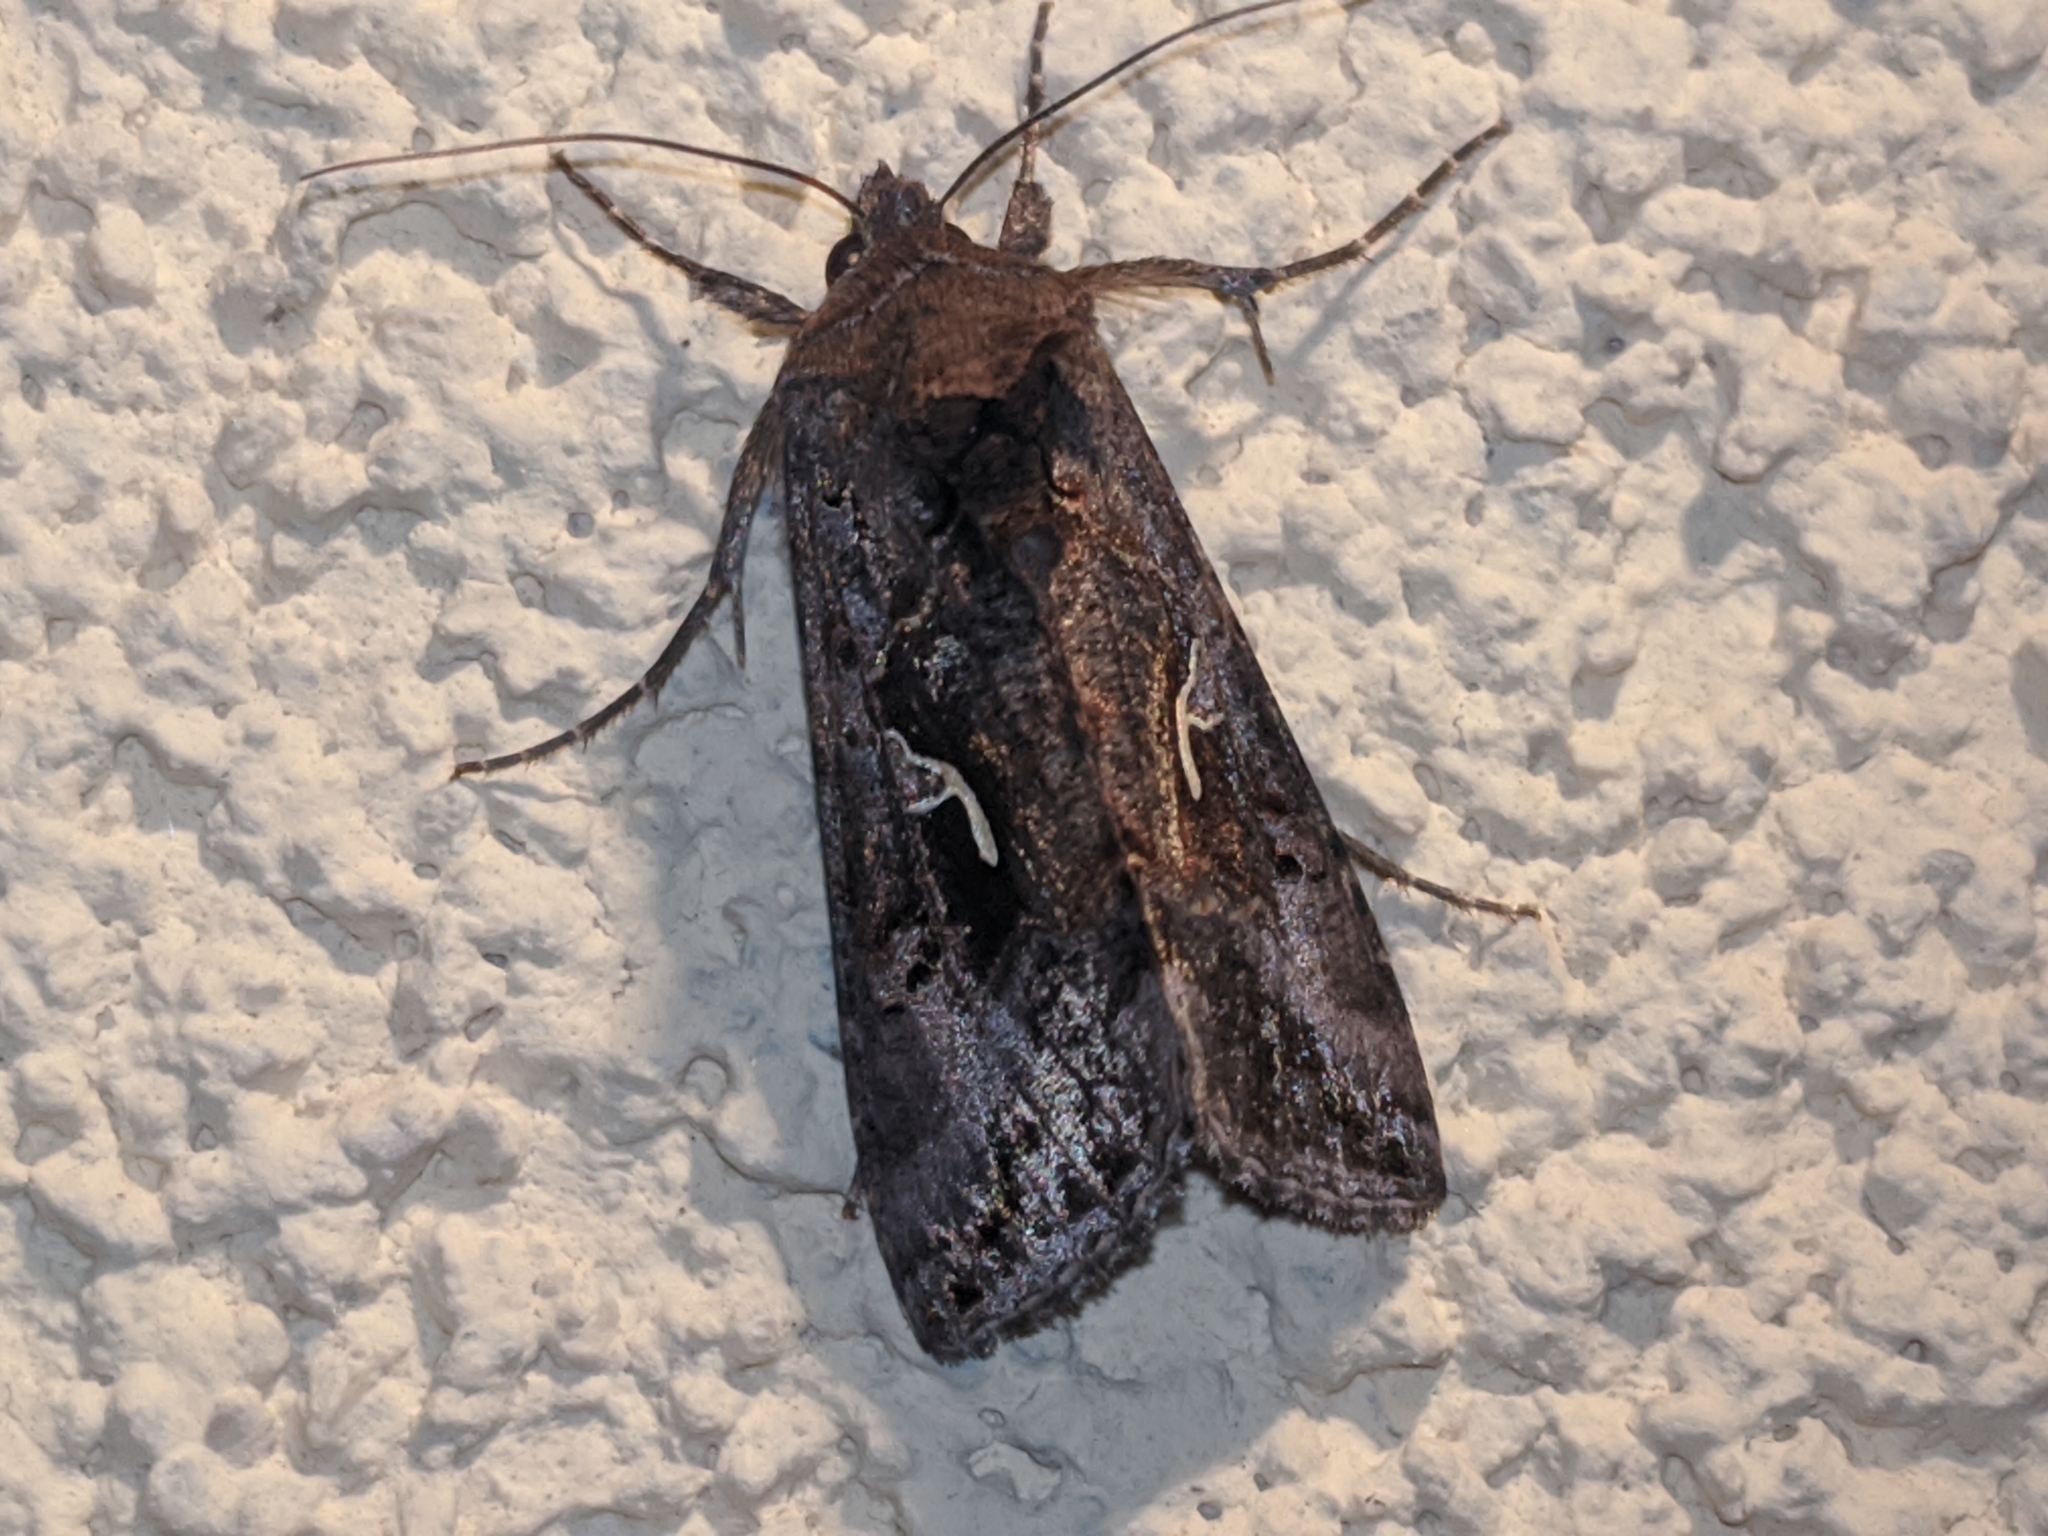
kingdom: Animalia
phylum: Arthropoda
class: Insecta
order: Lepidoptera
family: Noctuidae
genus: Autographa
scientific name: Autographa gamma
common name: Silver y
